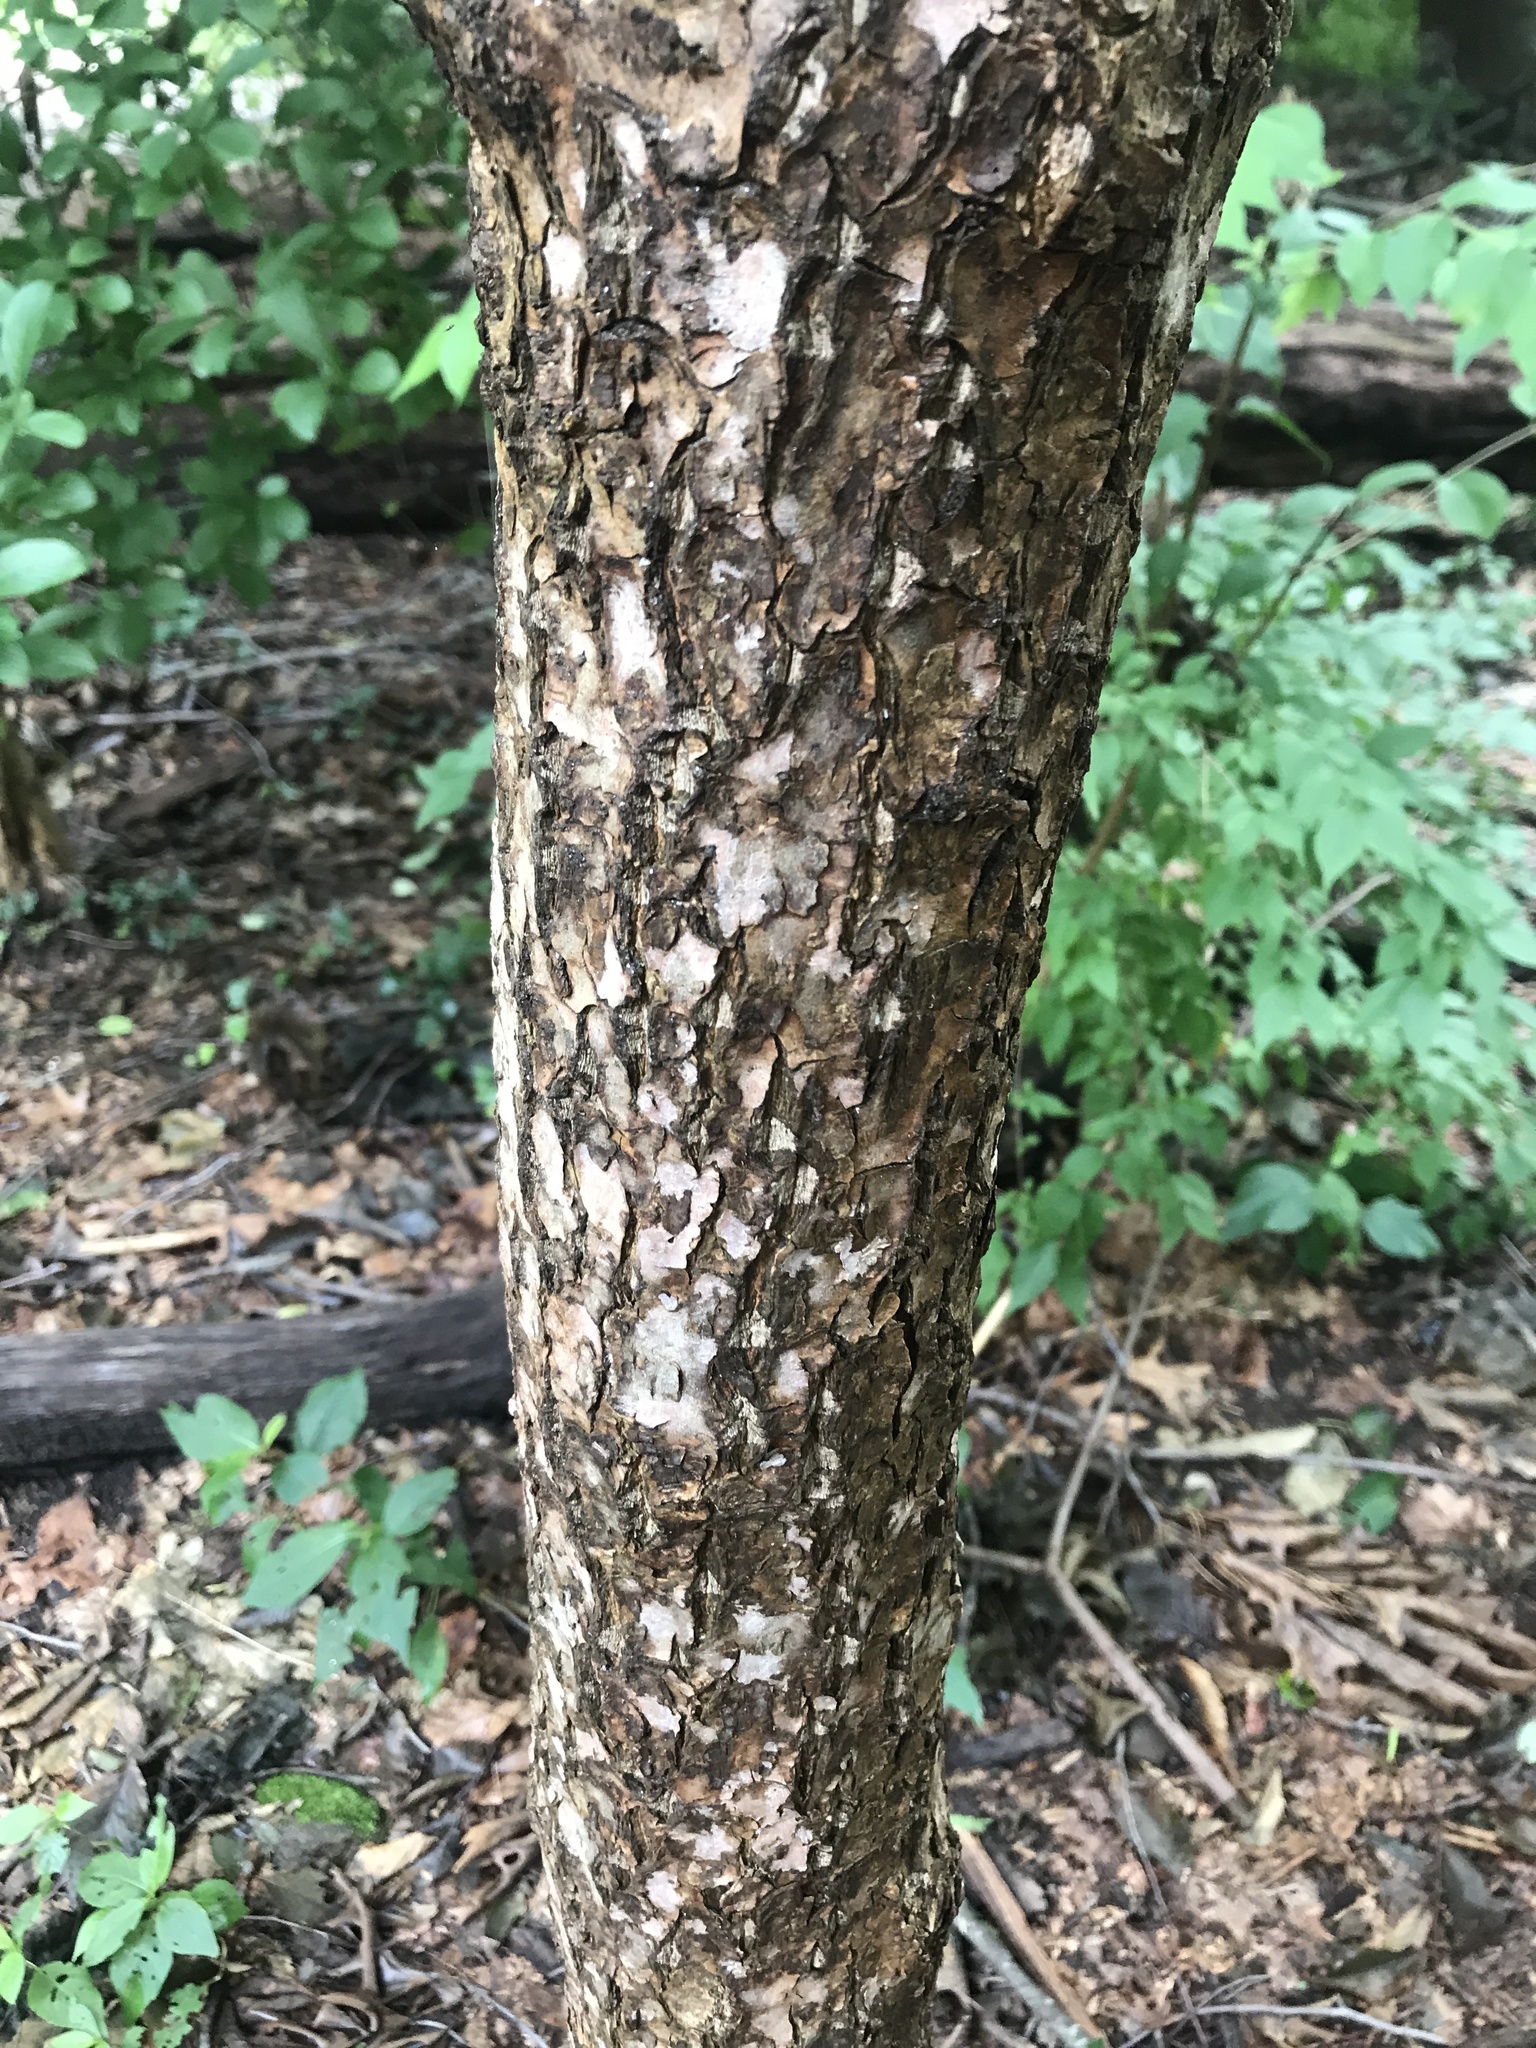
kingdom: Plantae
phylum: Tracheophyta
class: Magnoliopsida
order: Sapindales
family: Rutaceae
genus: Phellodendron
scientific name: Phellodendron amurense
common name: Amur corktree
